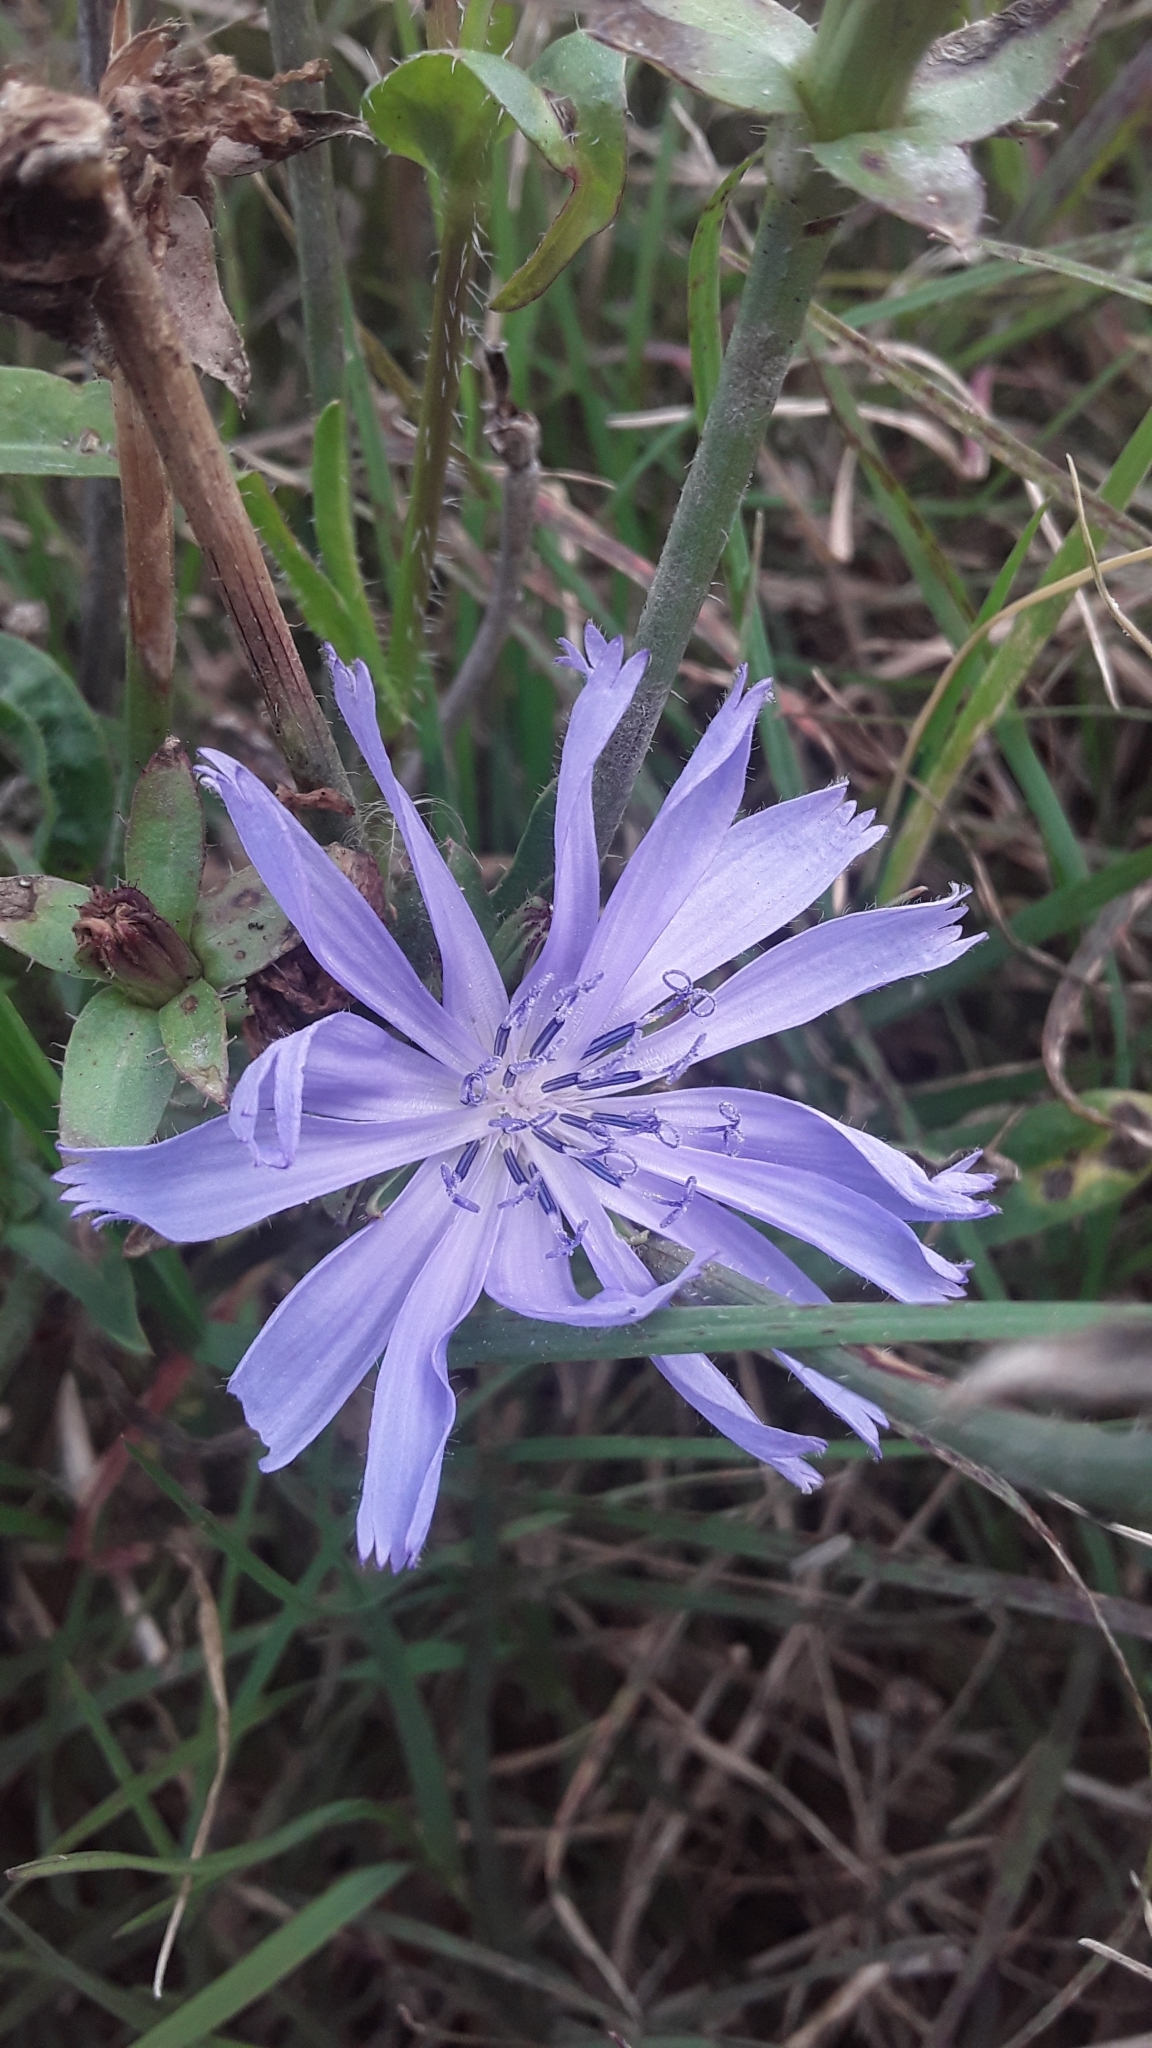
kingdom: Plantae
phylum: Tracheophyta
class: Magnoliopsida
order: Asterales
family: Asteraceae
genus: Cichorium
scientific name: Cichorium intybus
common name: Chicory
